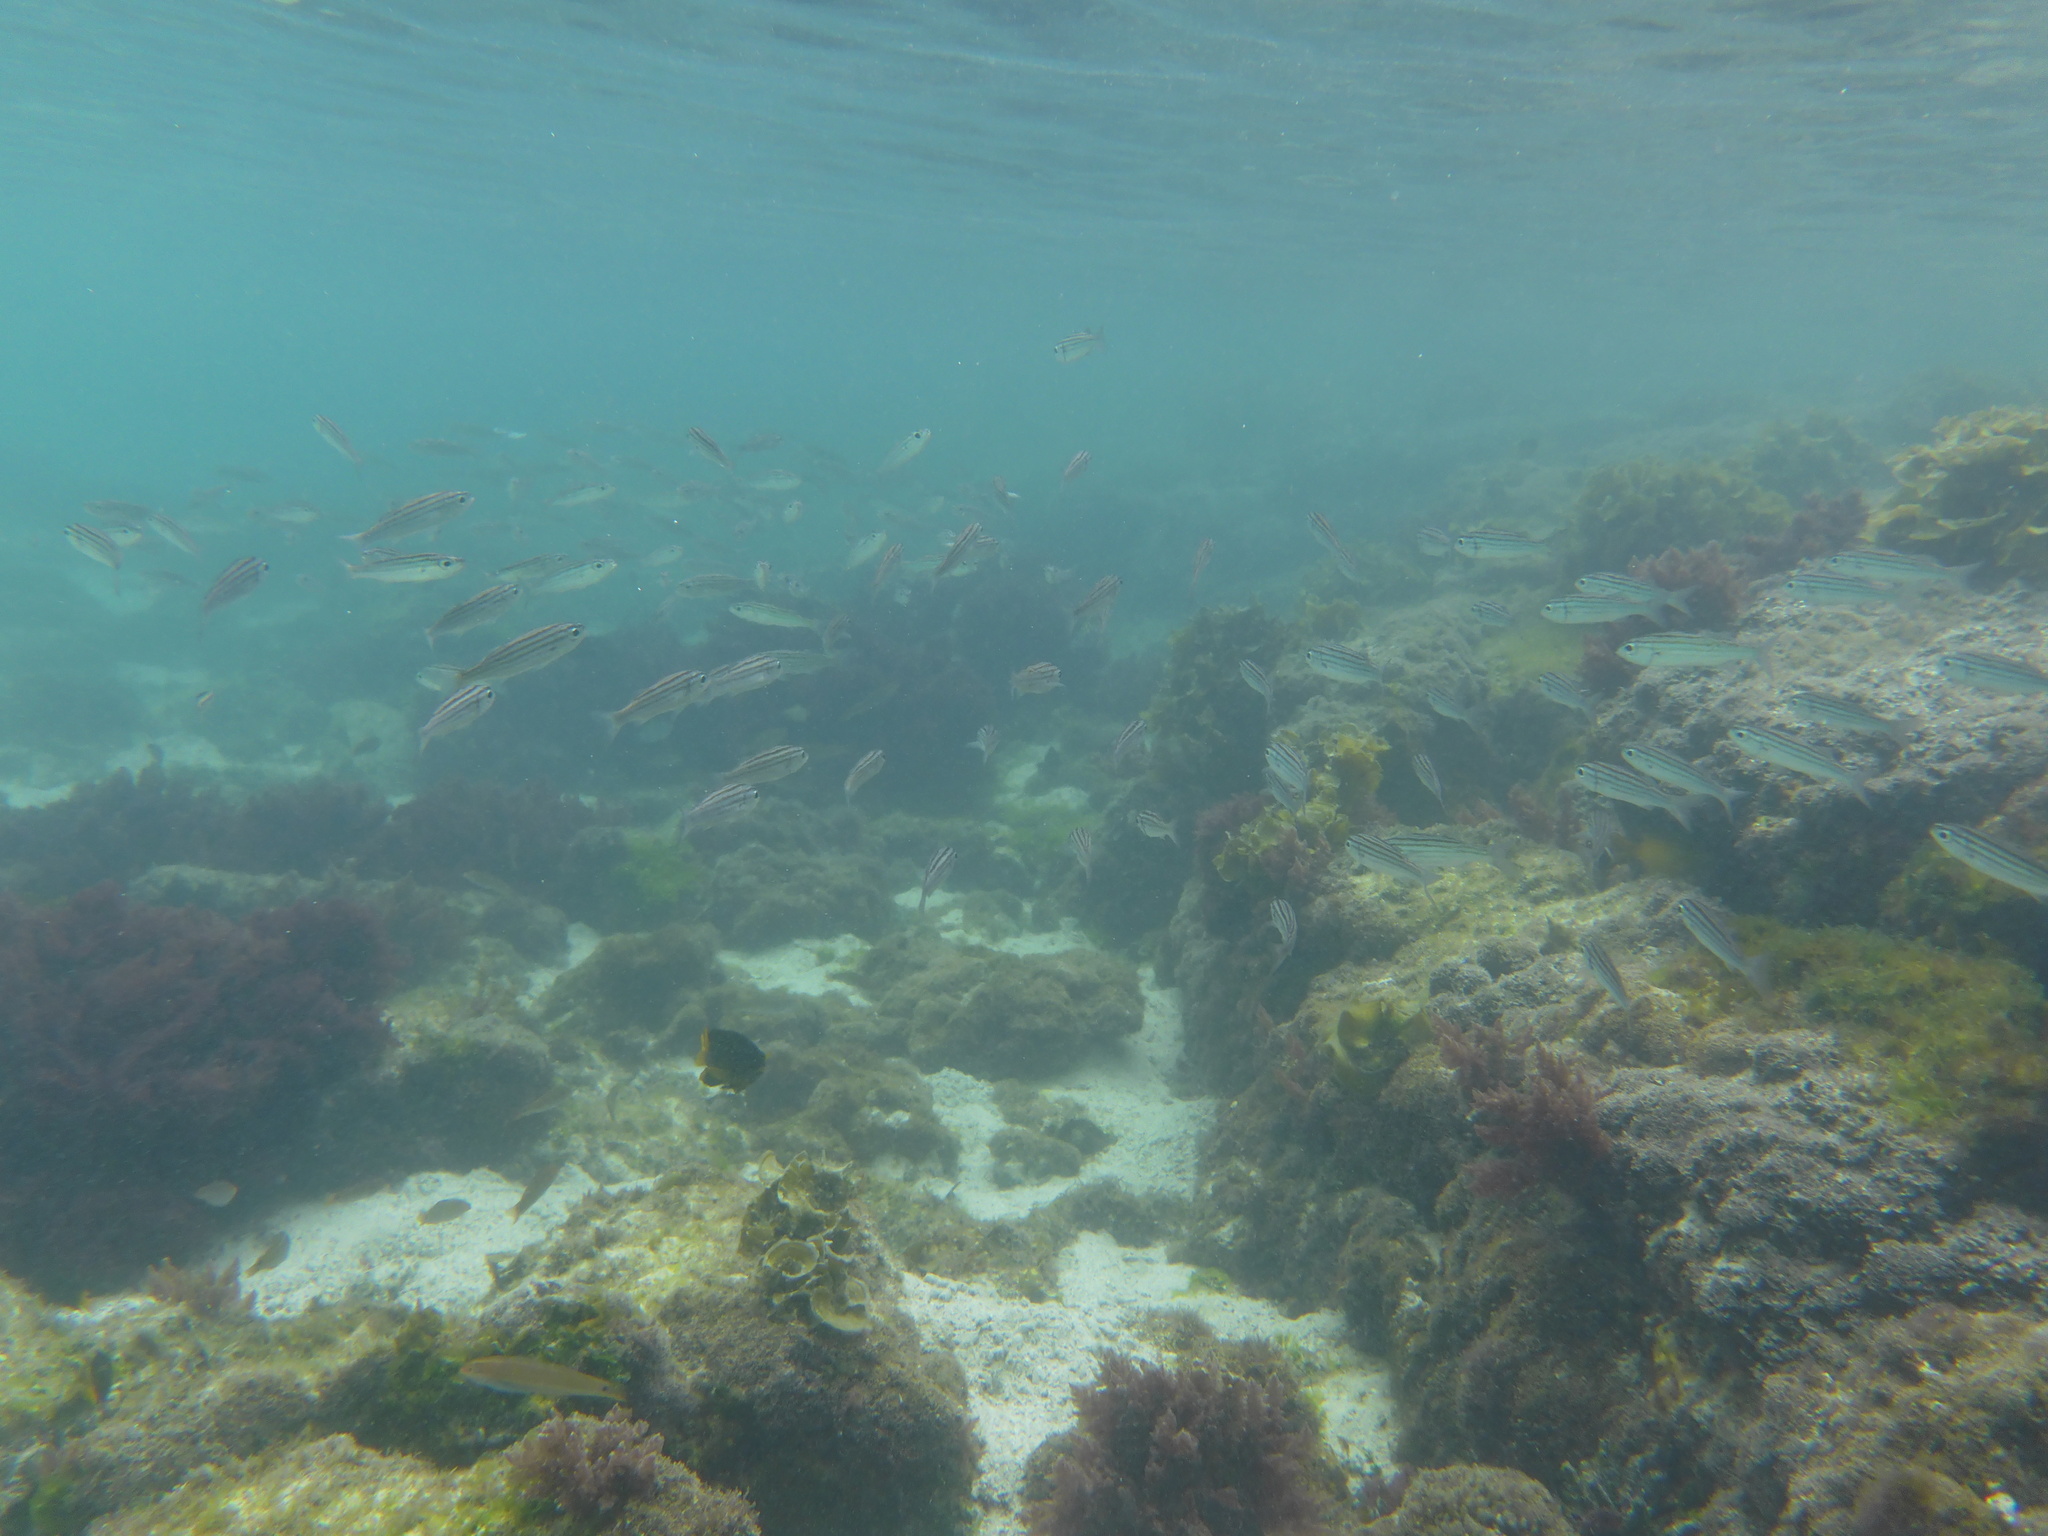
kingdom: Animalia
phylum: Chordata
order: Perciformes
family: Haemulidae
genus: Xenocys
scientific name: Xenocys jessiae
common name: Black-striped salema
